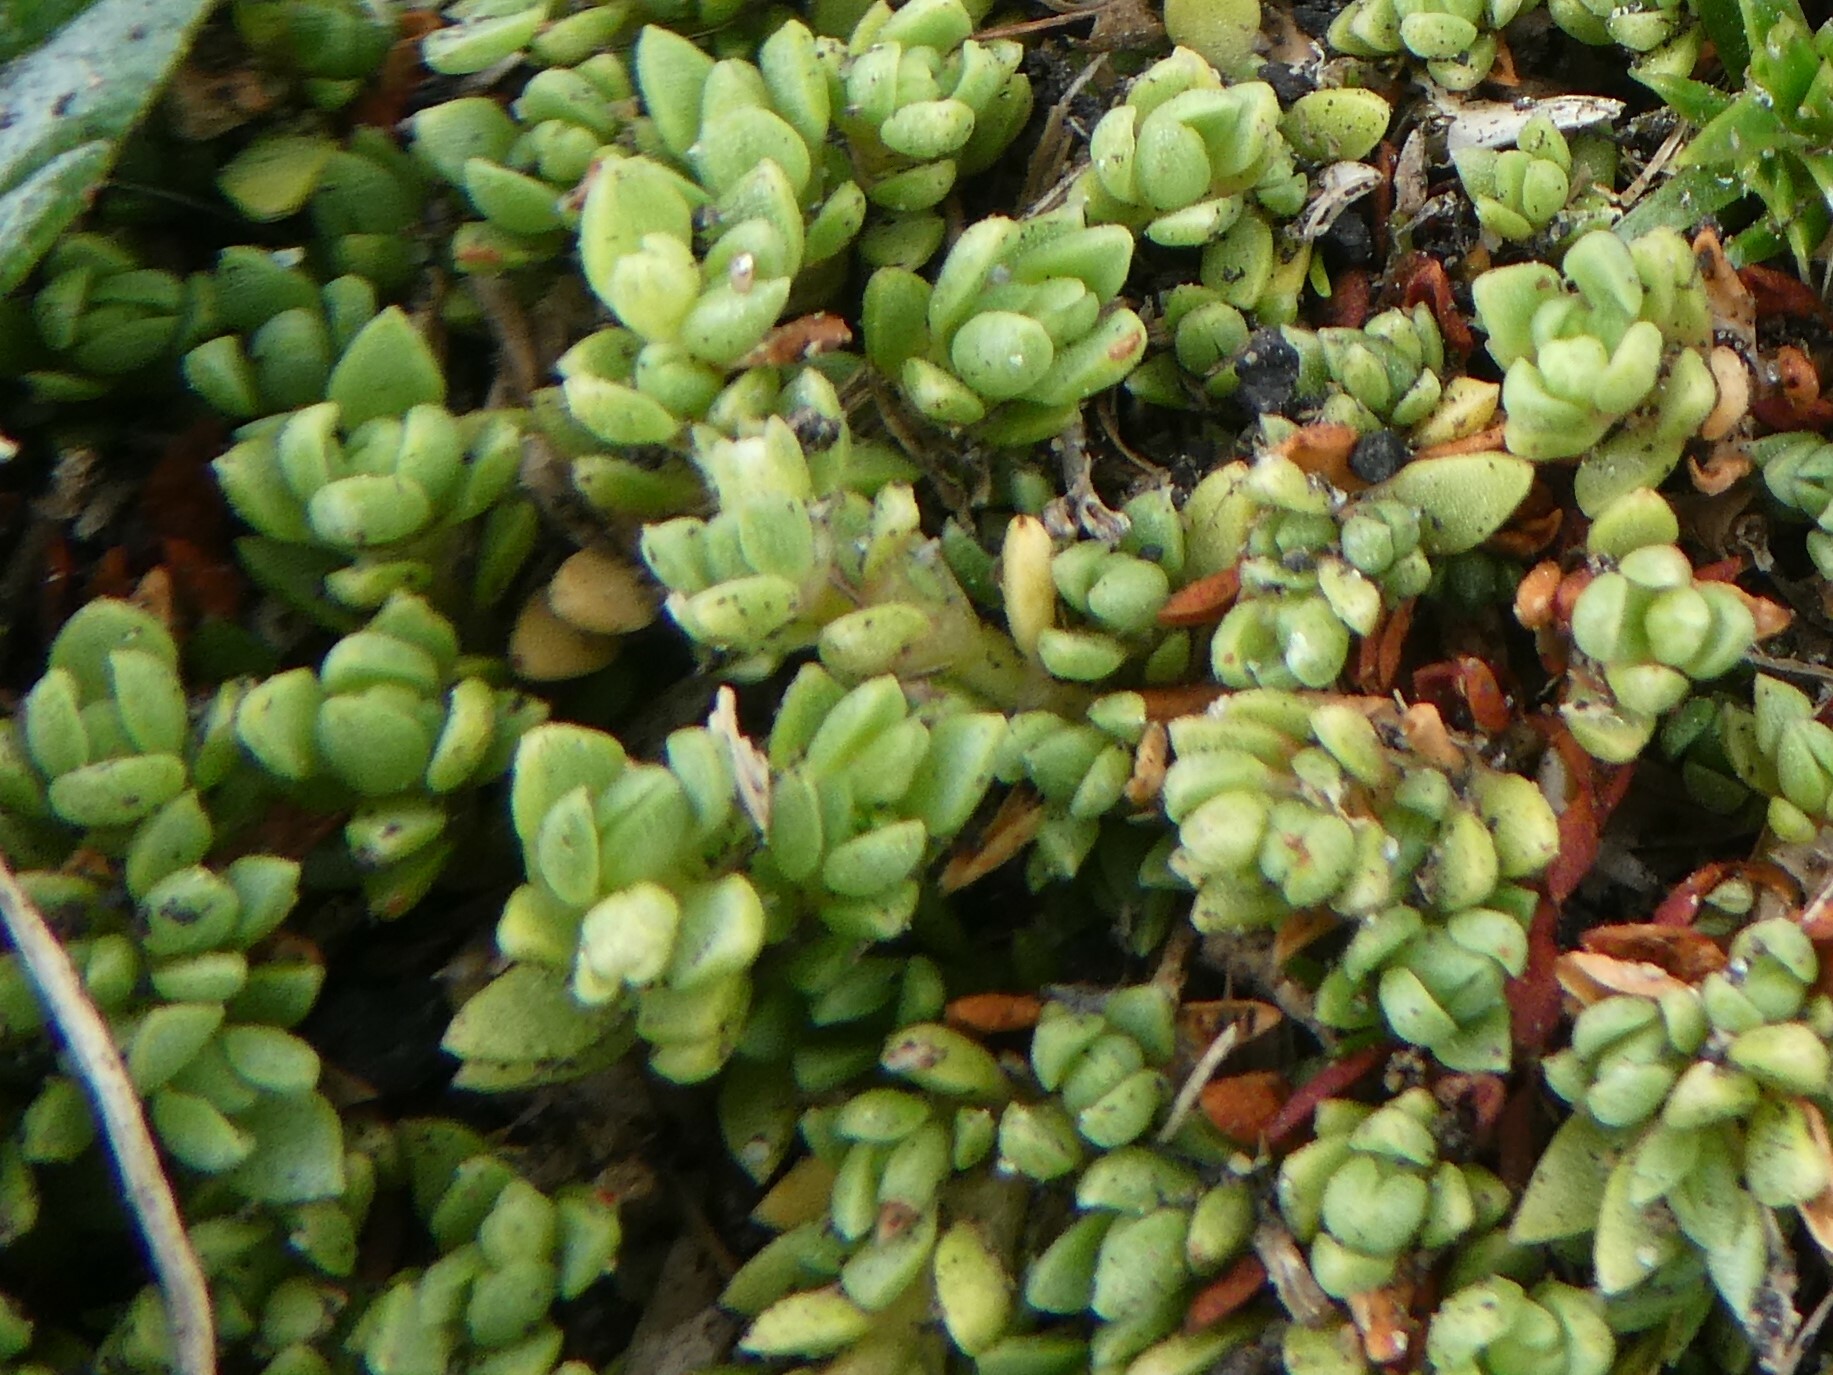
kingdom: Plantae
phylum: Tracheophyta
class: Magnoliopsida
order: Saxifragales
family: Crassulaceae
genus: Crassula
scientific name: Crassula moschata
